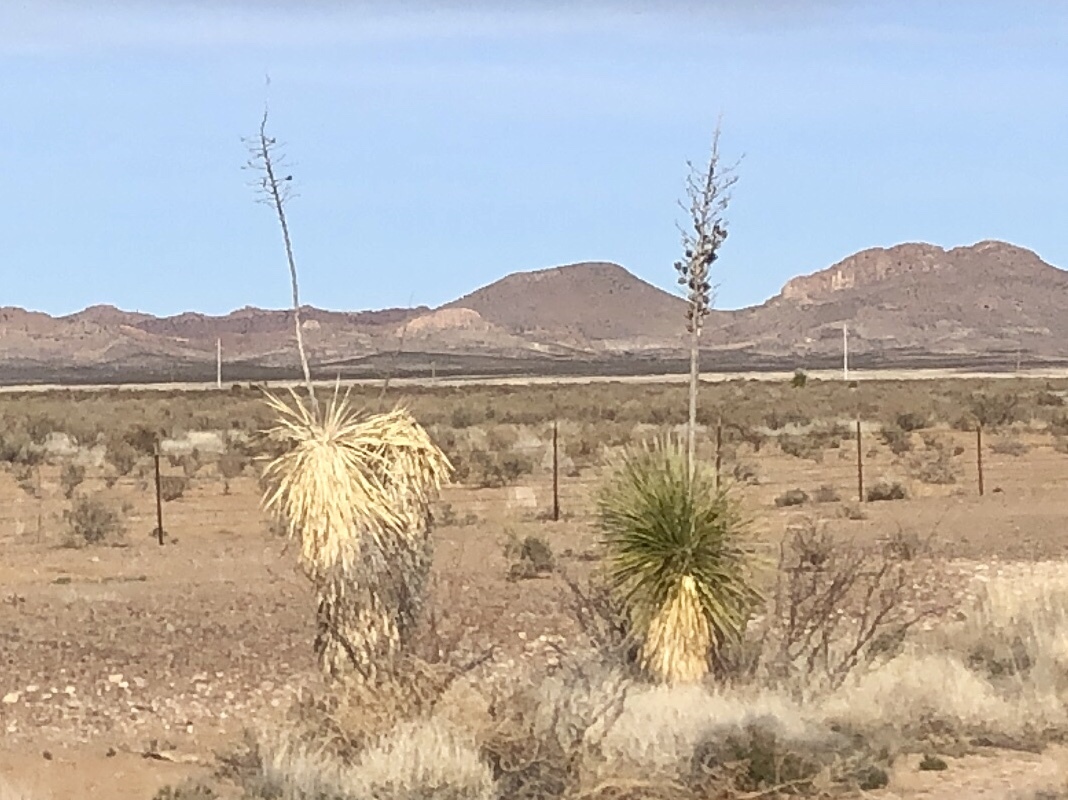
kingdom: Plantae
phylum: Tracheophyta
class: Liliopsida
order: Asparagales
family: Asparagaceae
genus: Yucca
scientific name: Yucca elata
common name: Palmella
